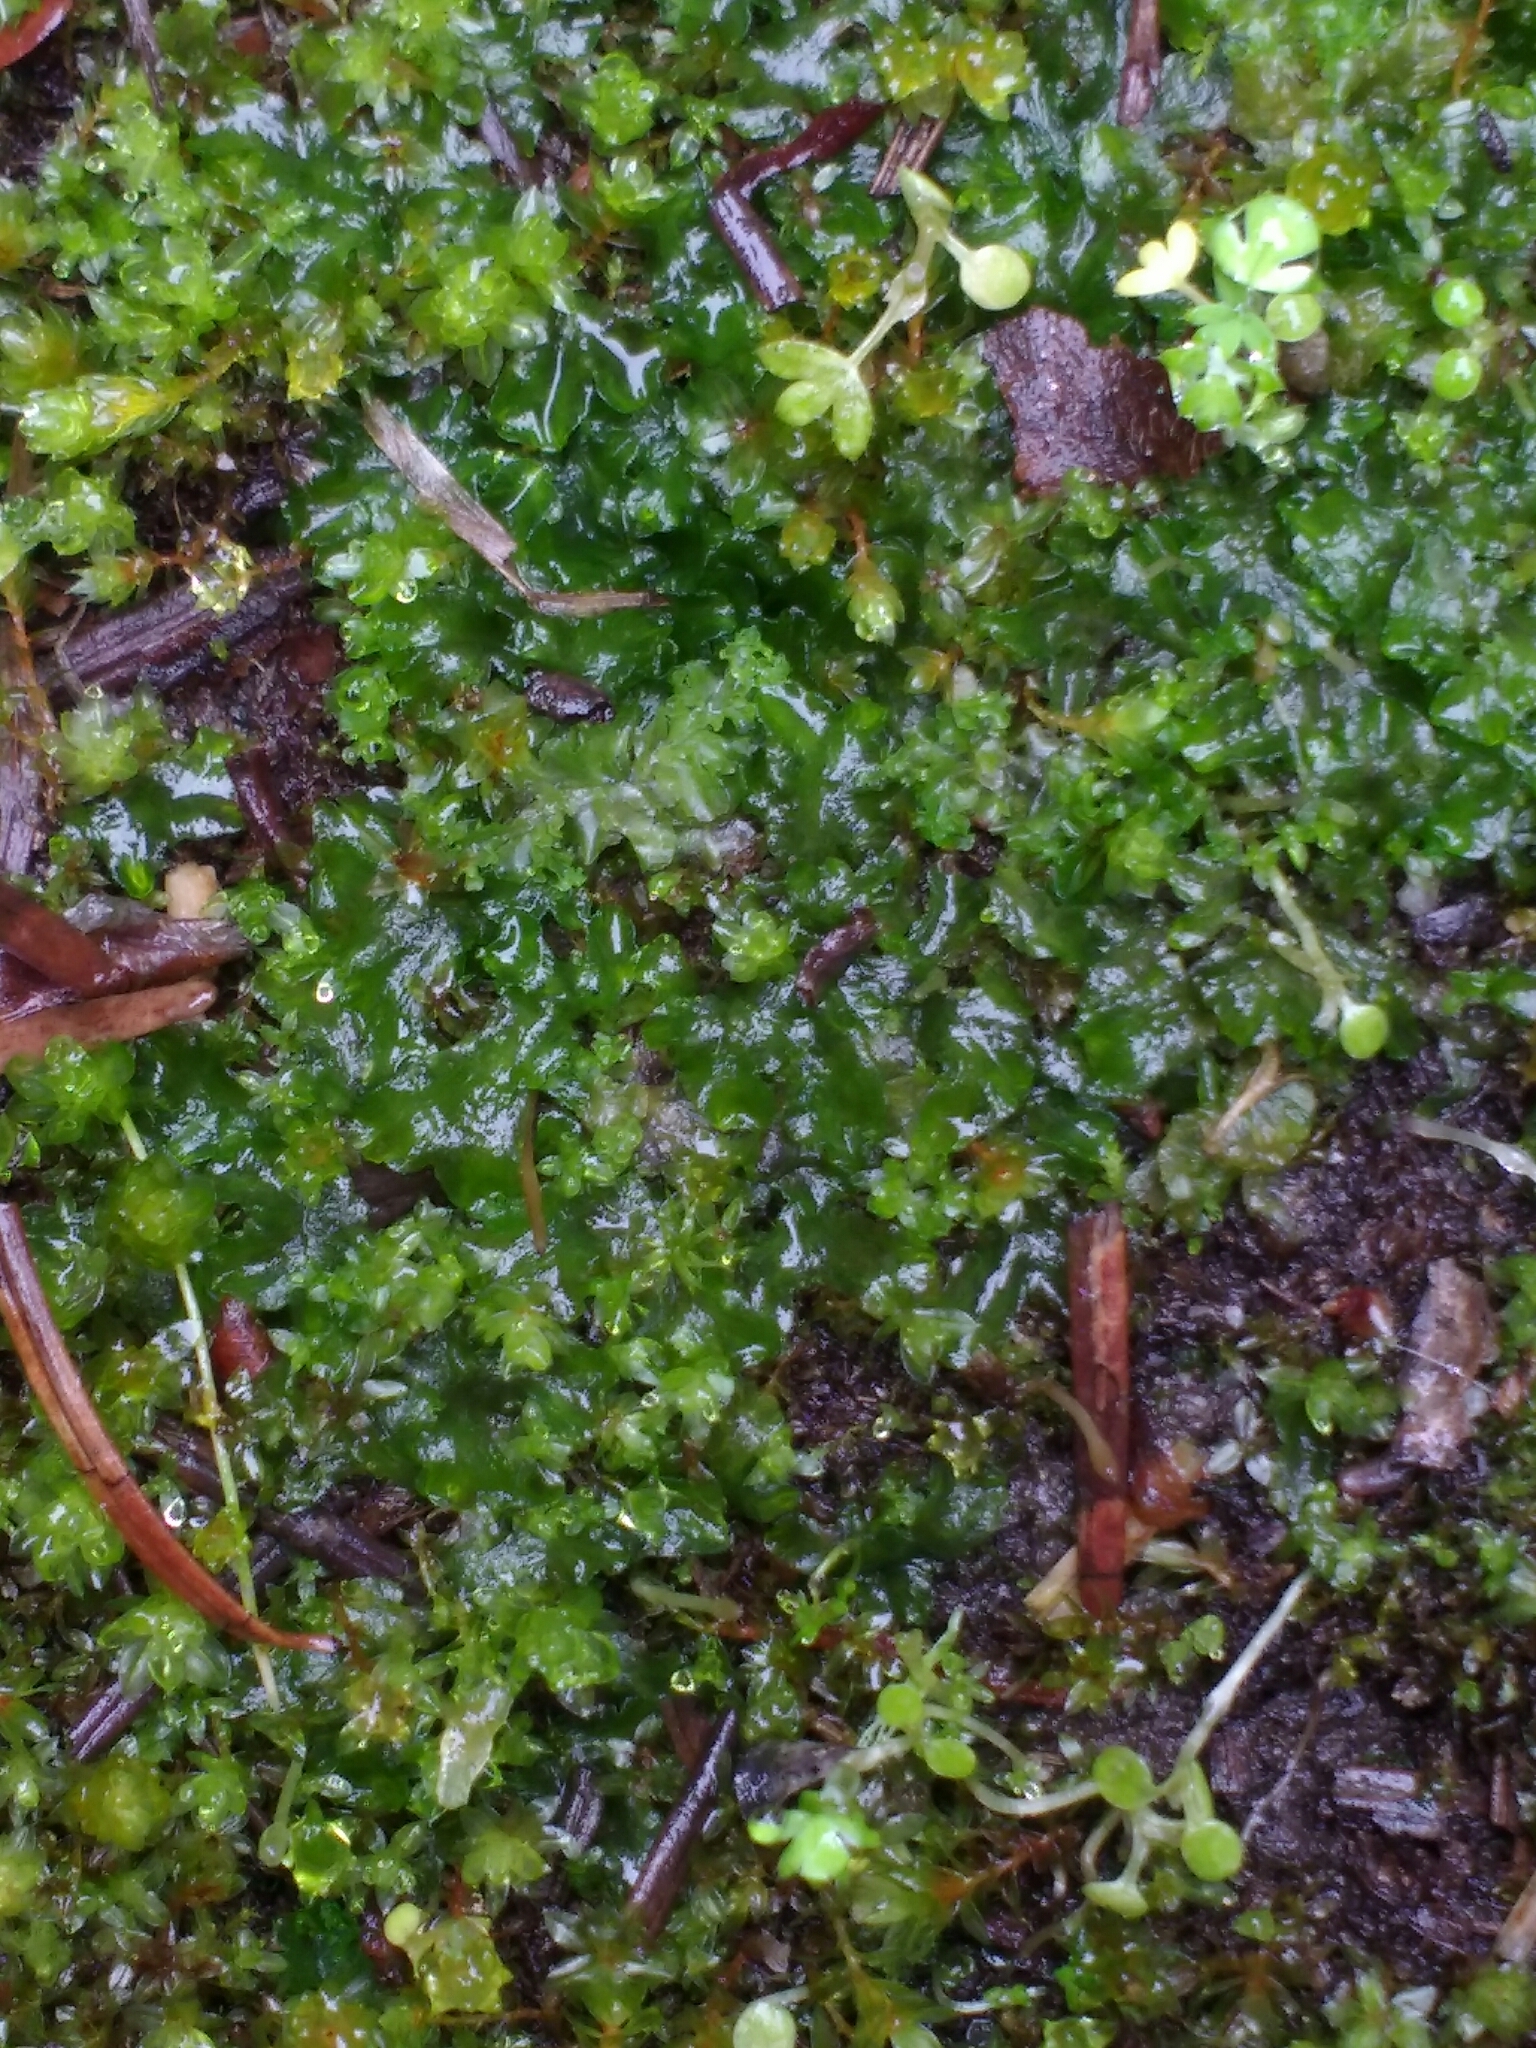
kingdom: Plantae
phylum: Anthocerotophyta
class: Anthocerotopsida
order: Phymatocerotales
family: Phymatocerotaceae
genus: Phymatoceros
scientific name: Phymatoceros bulbiculosus
